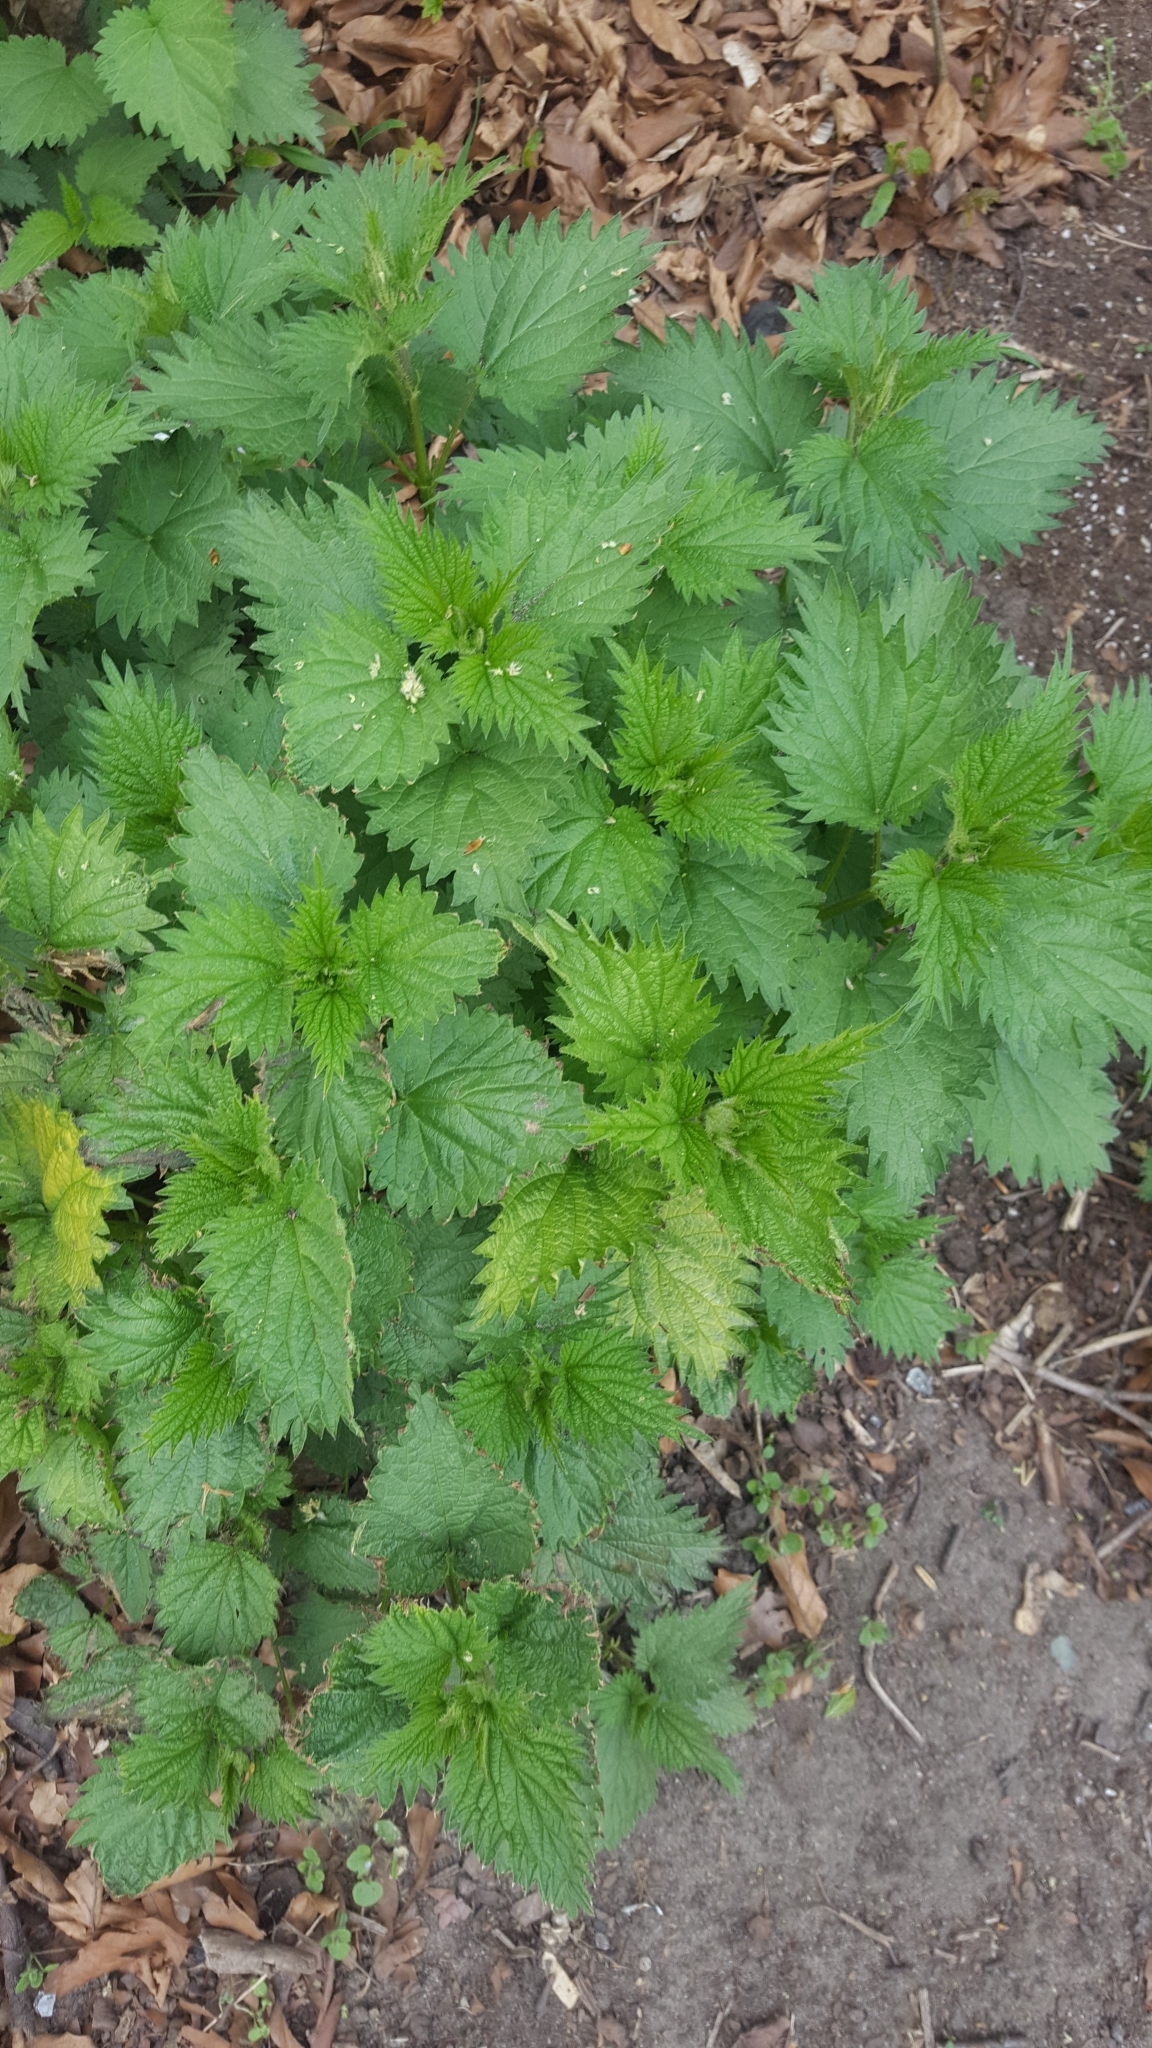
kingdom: Plantae
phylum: Tracheophyta
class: Magnoliopsida
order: Rosales
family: Urticaceae
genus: Urtica
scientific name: Urtica dioica
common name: Common nettle
